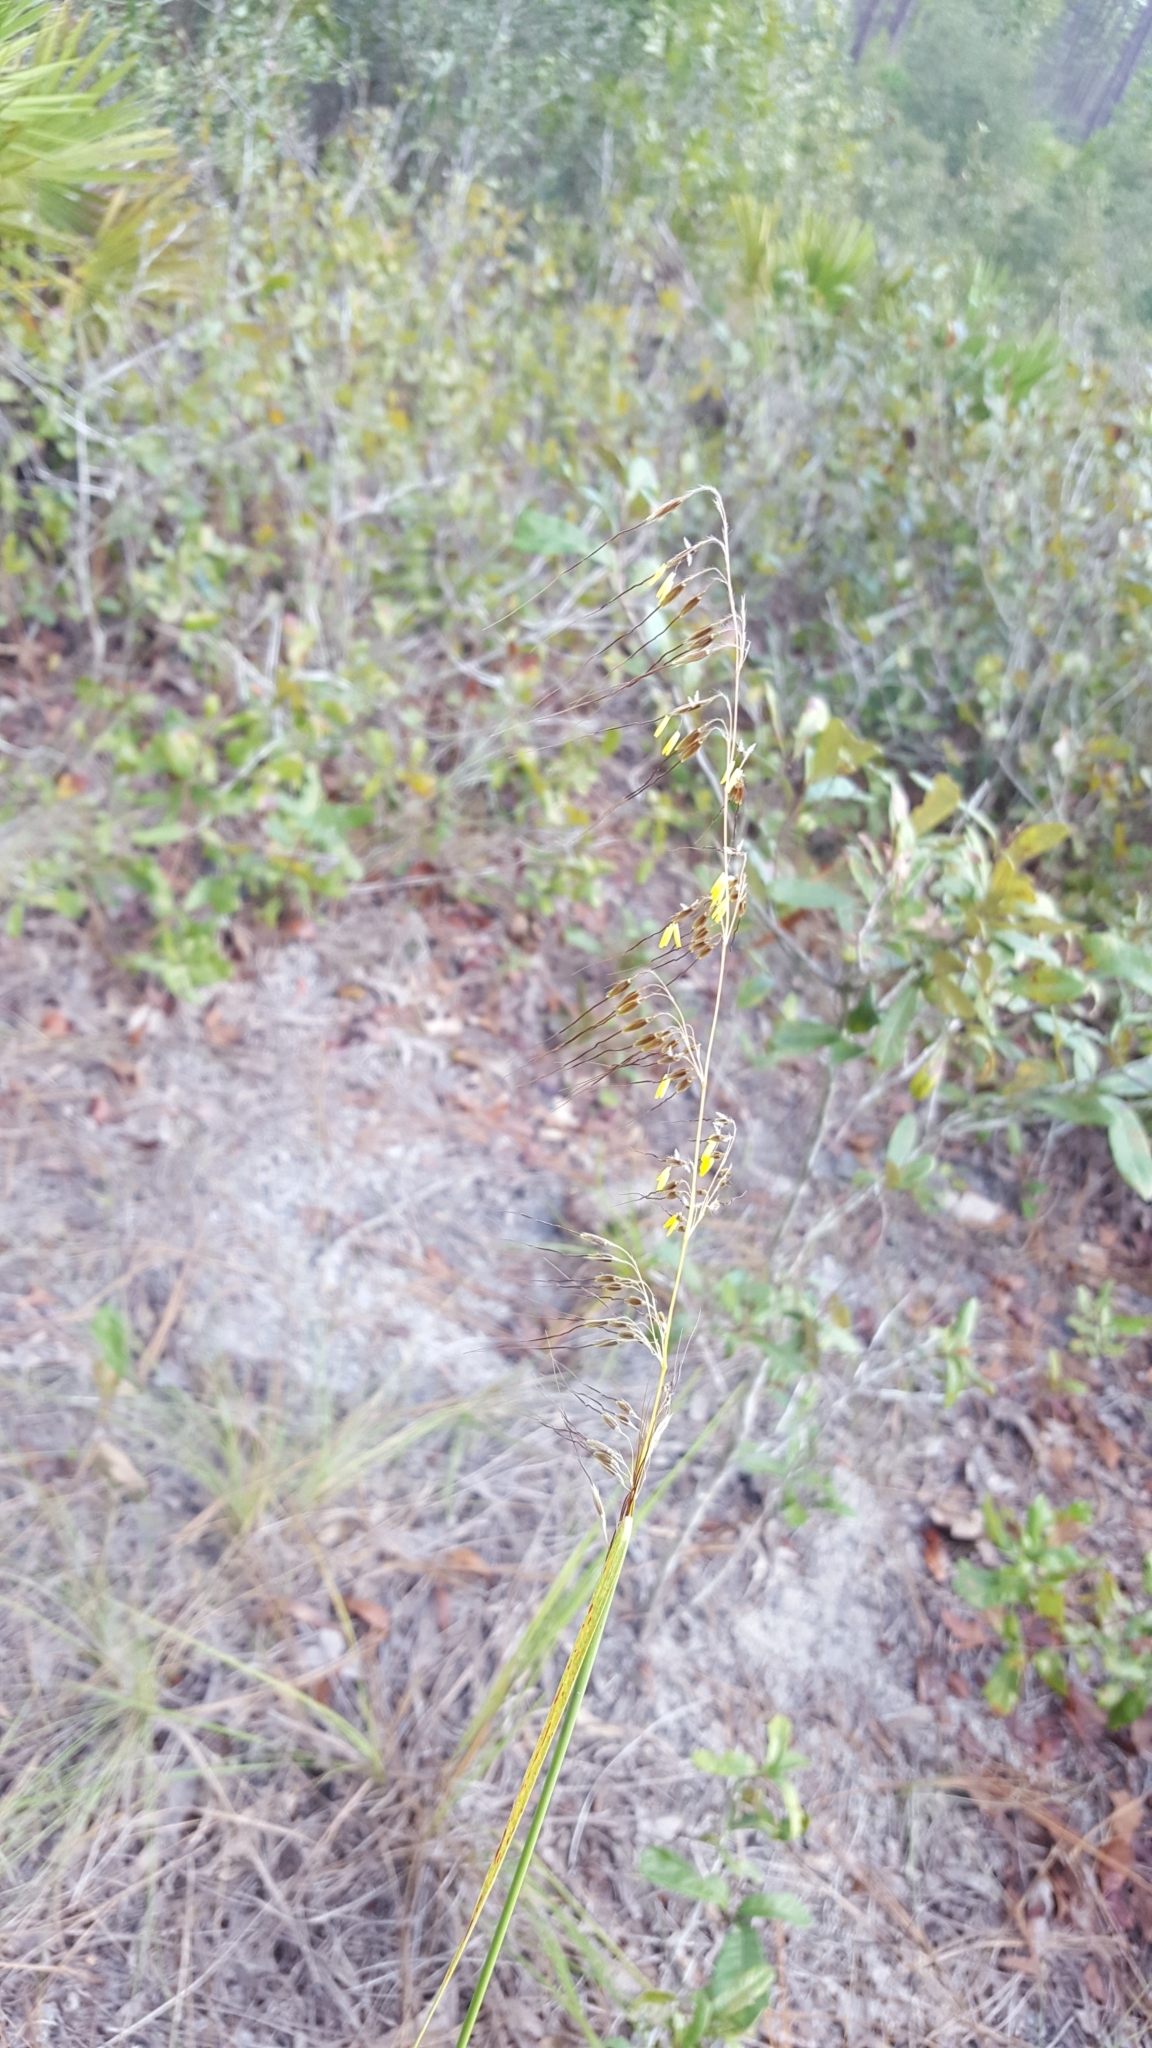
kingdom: Plantae
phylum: Tracheophyta
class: Liliopsida
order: Poales
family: Poaceae
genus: Sorghastrum
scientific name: Sorghastrum secundum
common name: Lopsided indian grass
